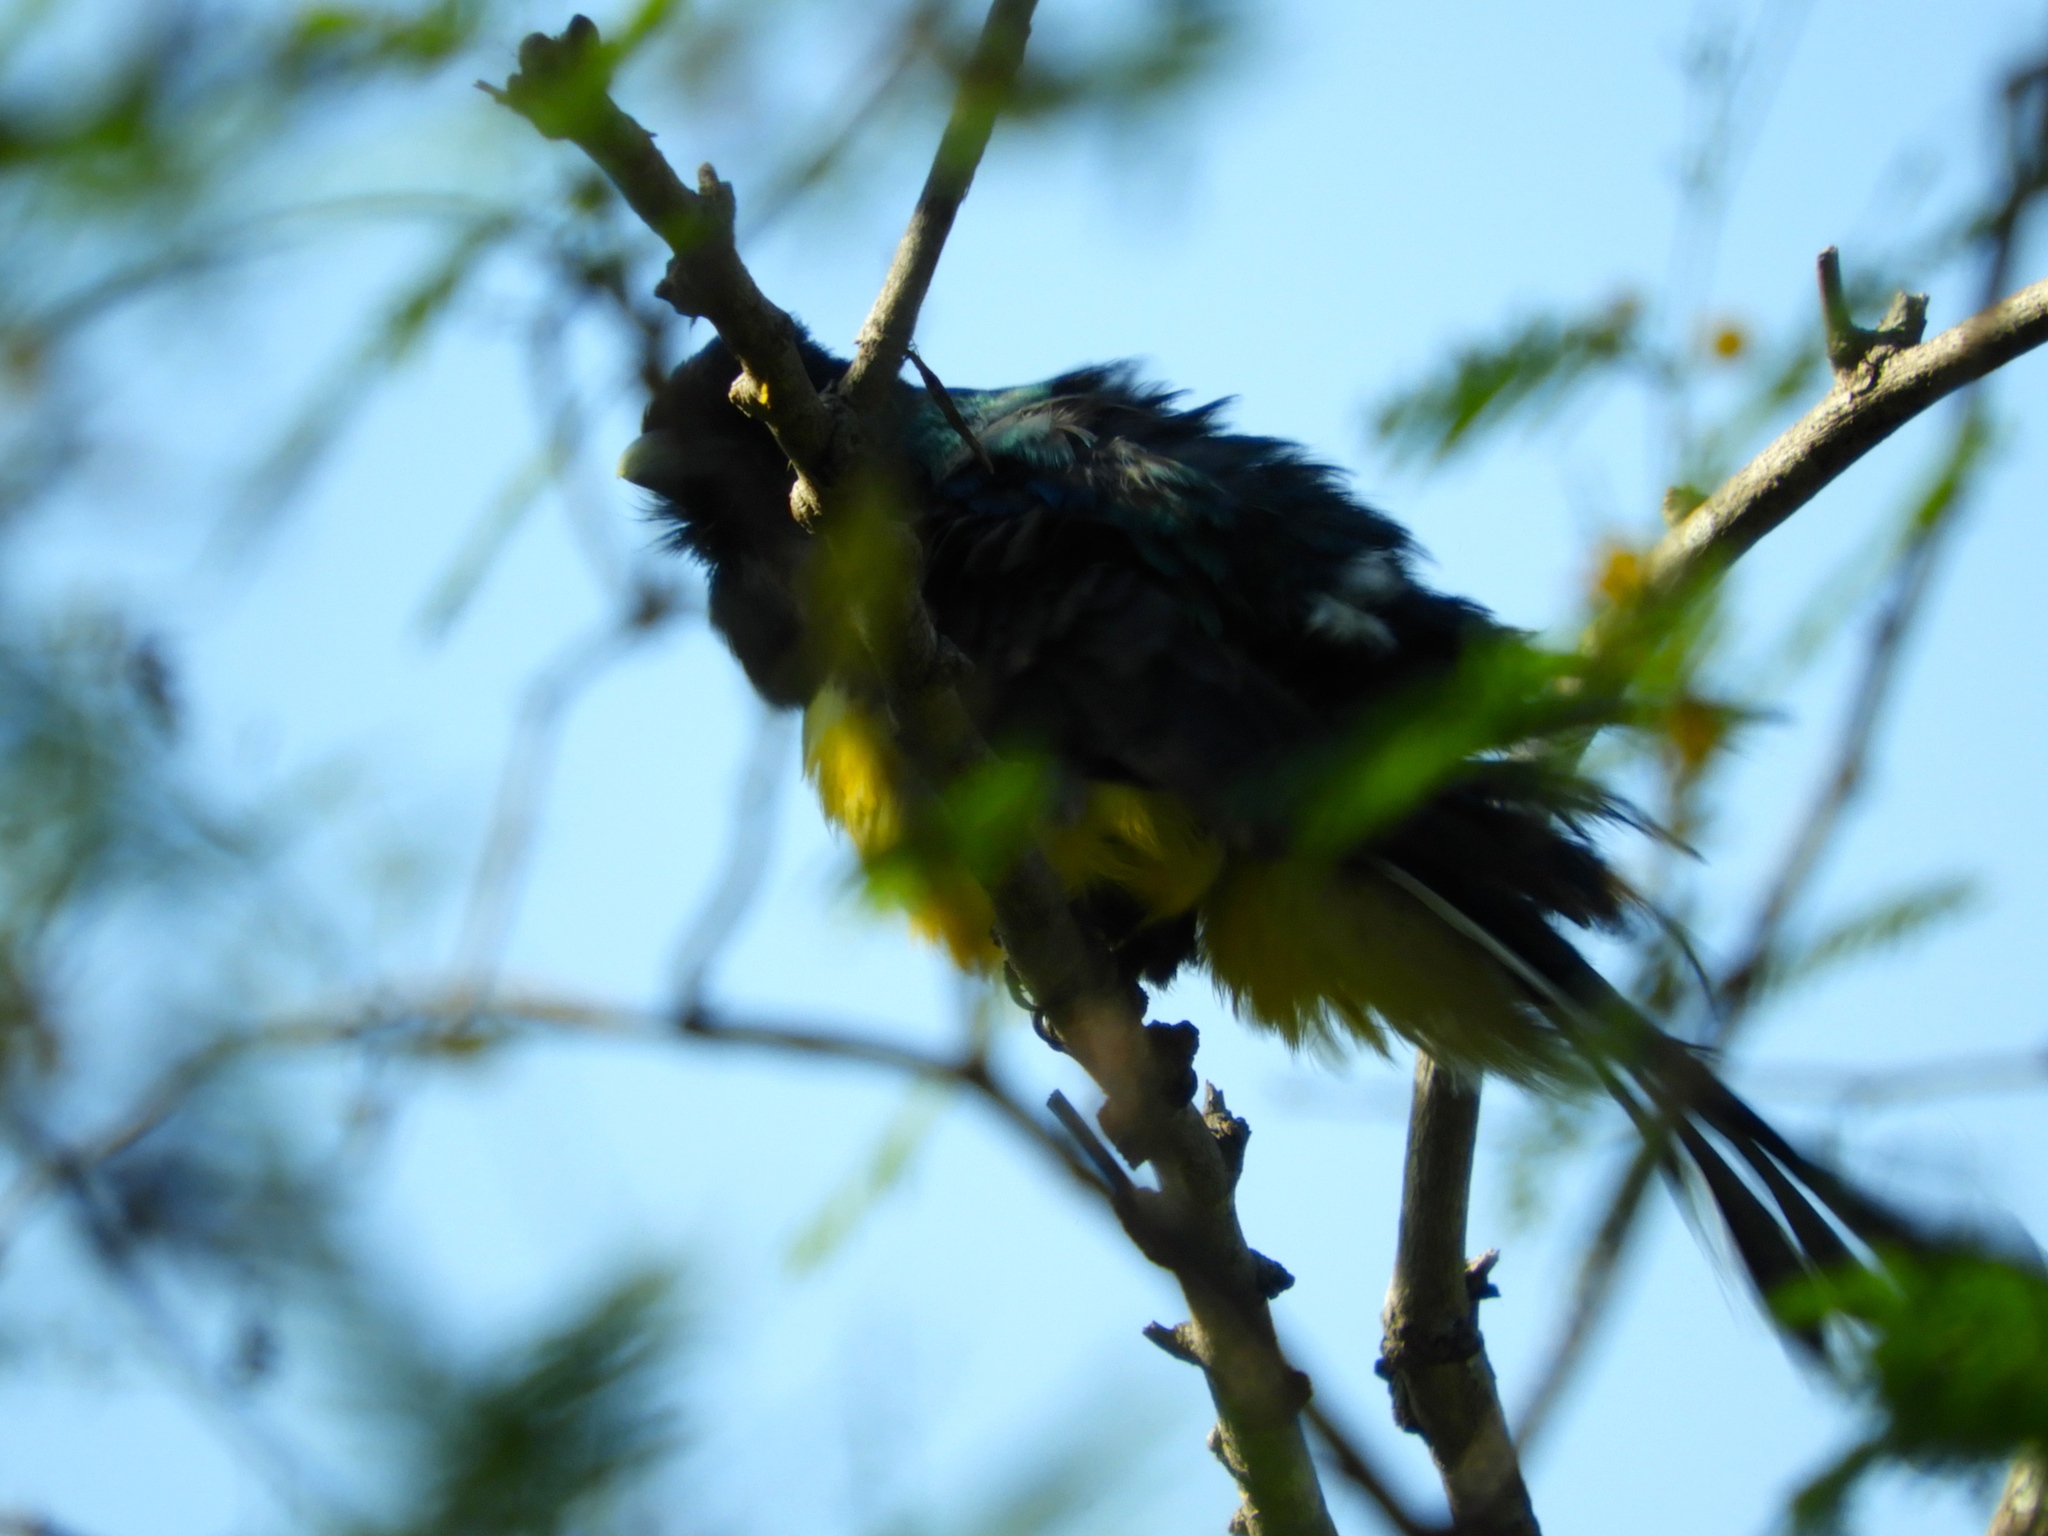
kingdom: Animalia
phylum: Chordata
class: Aves
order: Trogoniformes
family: Trogonidae
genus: Trogon
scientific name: Trogon citreolus
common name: Citreoline trogon
